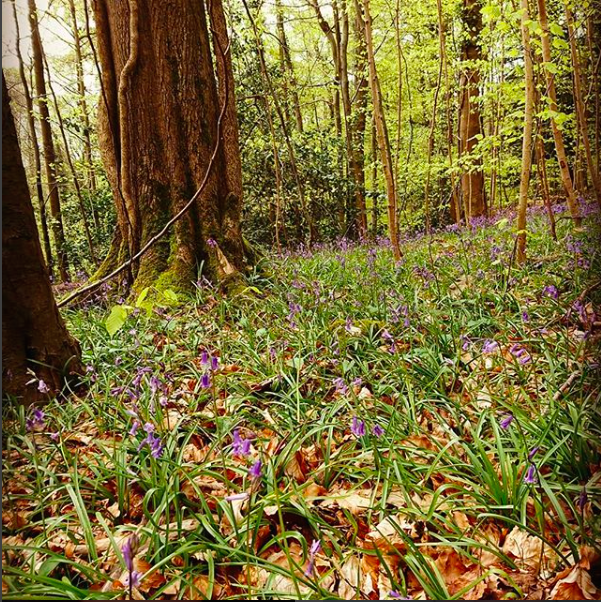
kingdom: Plantae
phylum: Tracheophyta
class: Liliopsida
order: Asparagales
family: Asparagaceae
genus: Hyacinthoides
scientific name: Hyacinthoides non-scripta
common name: Bluebell
